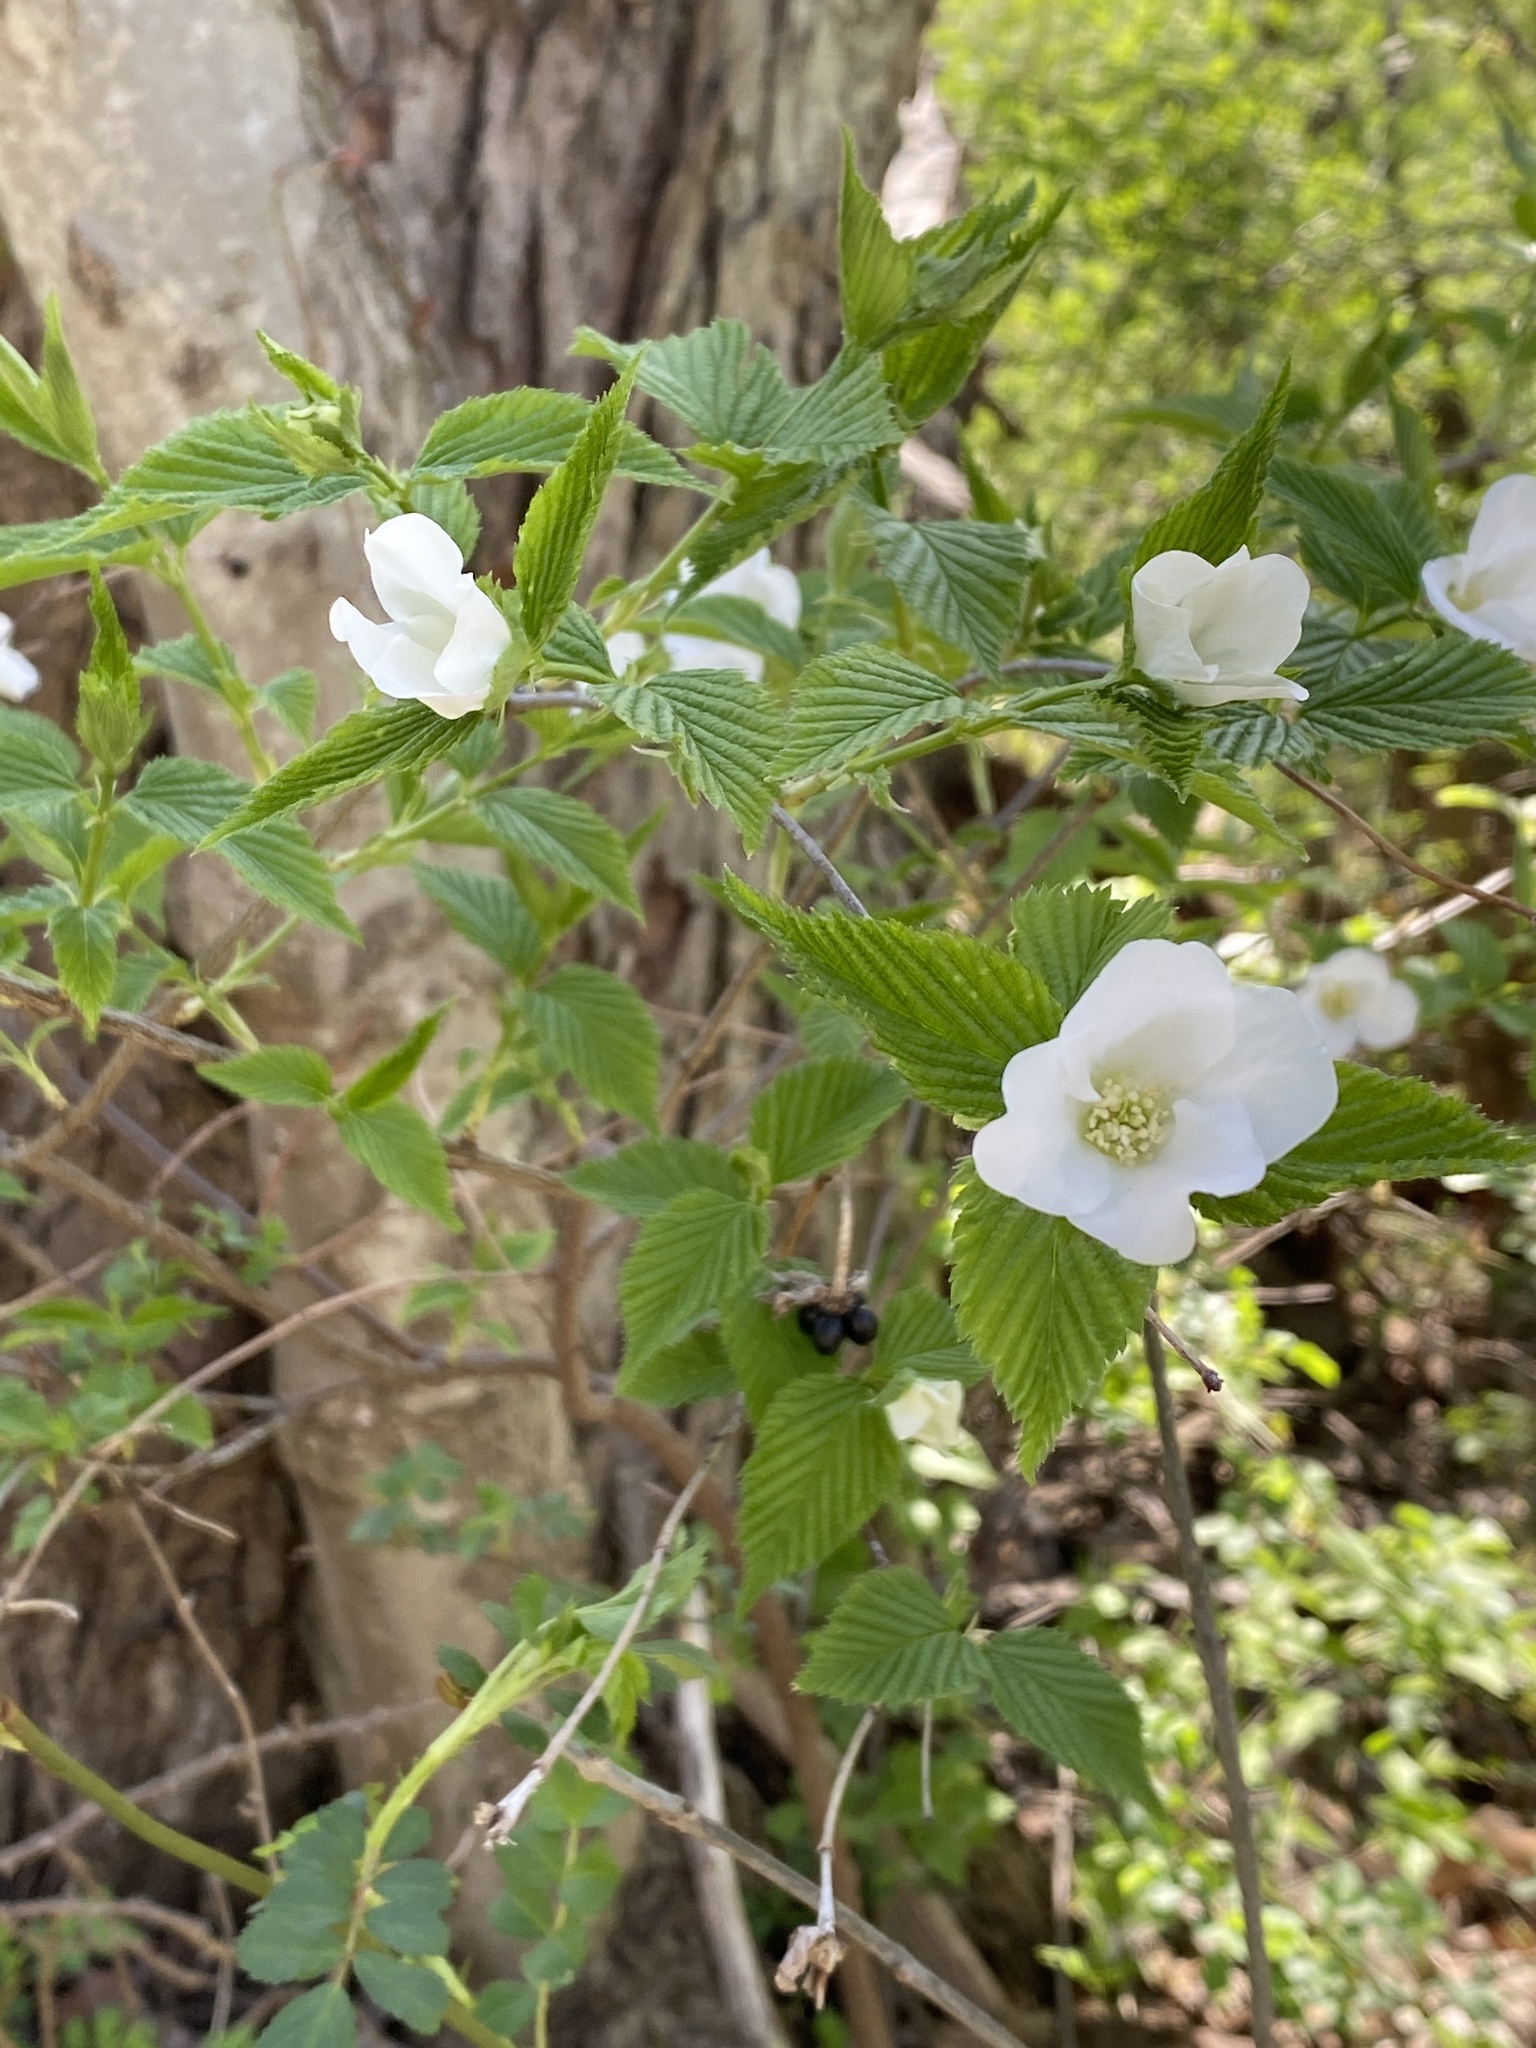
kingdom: Plantae
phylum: Tracheophyta
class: Magnoliopsida
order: Rosales
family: Rosaceae
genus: Rhodotypos
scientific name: Rhodotypos scandens
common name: Jetbead
